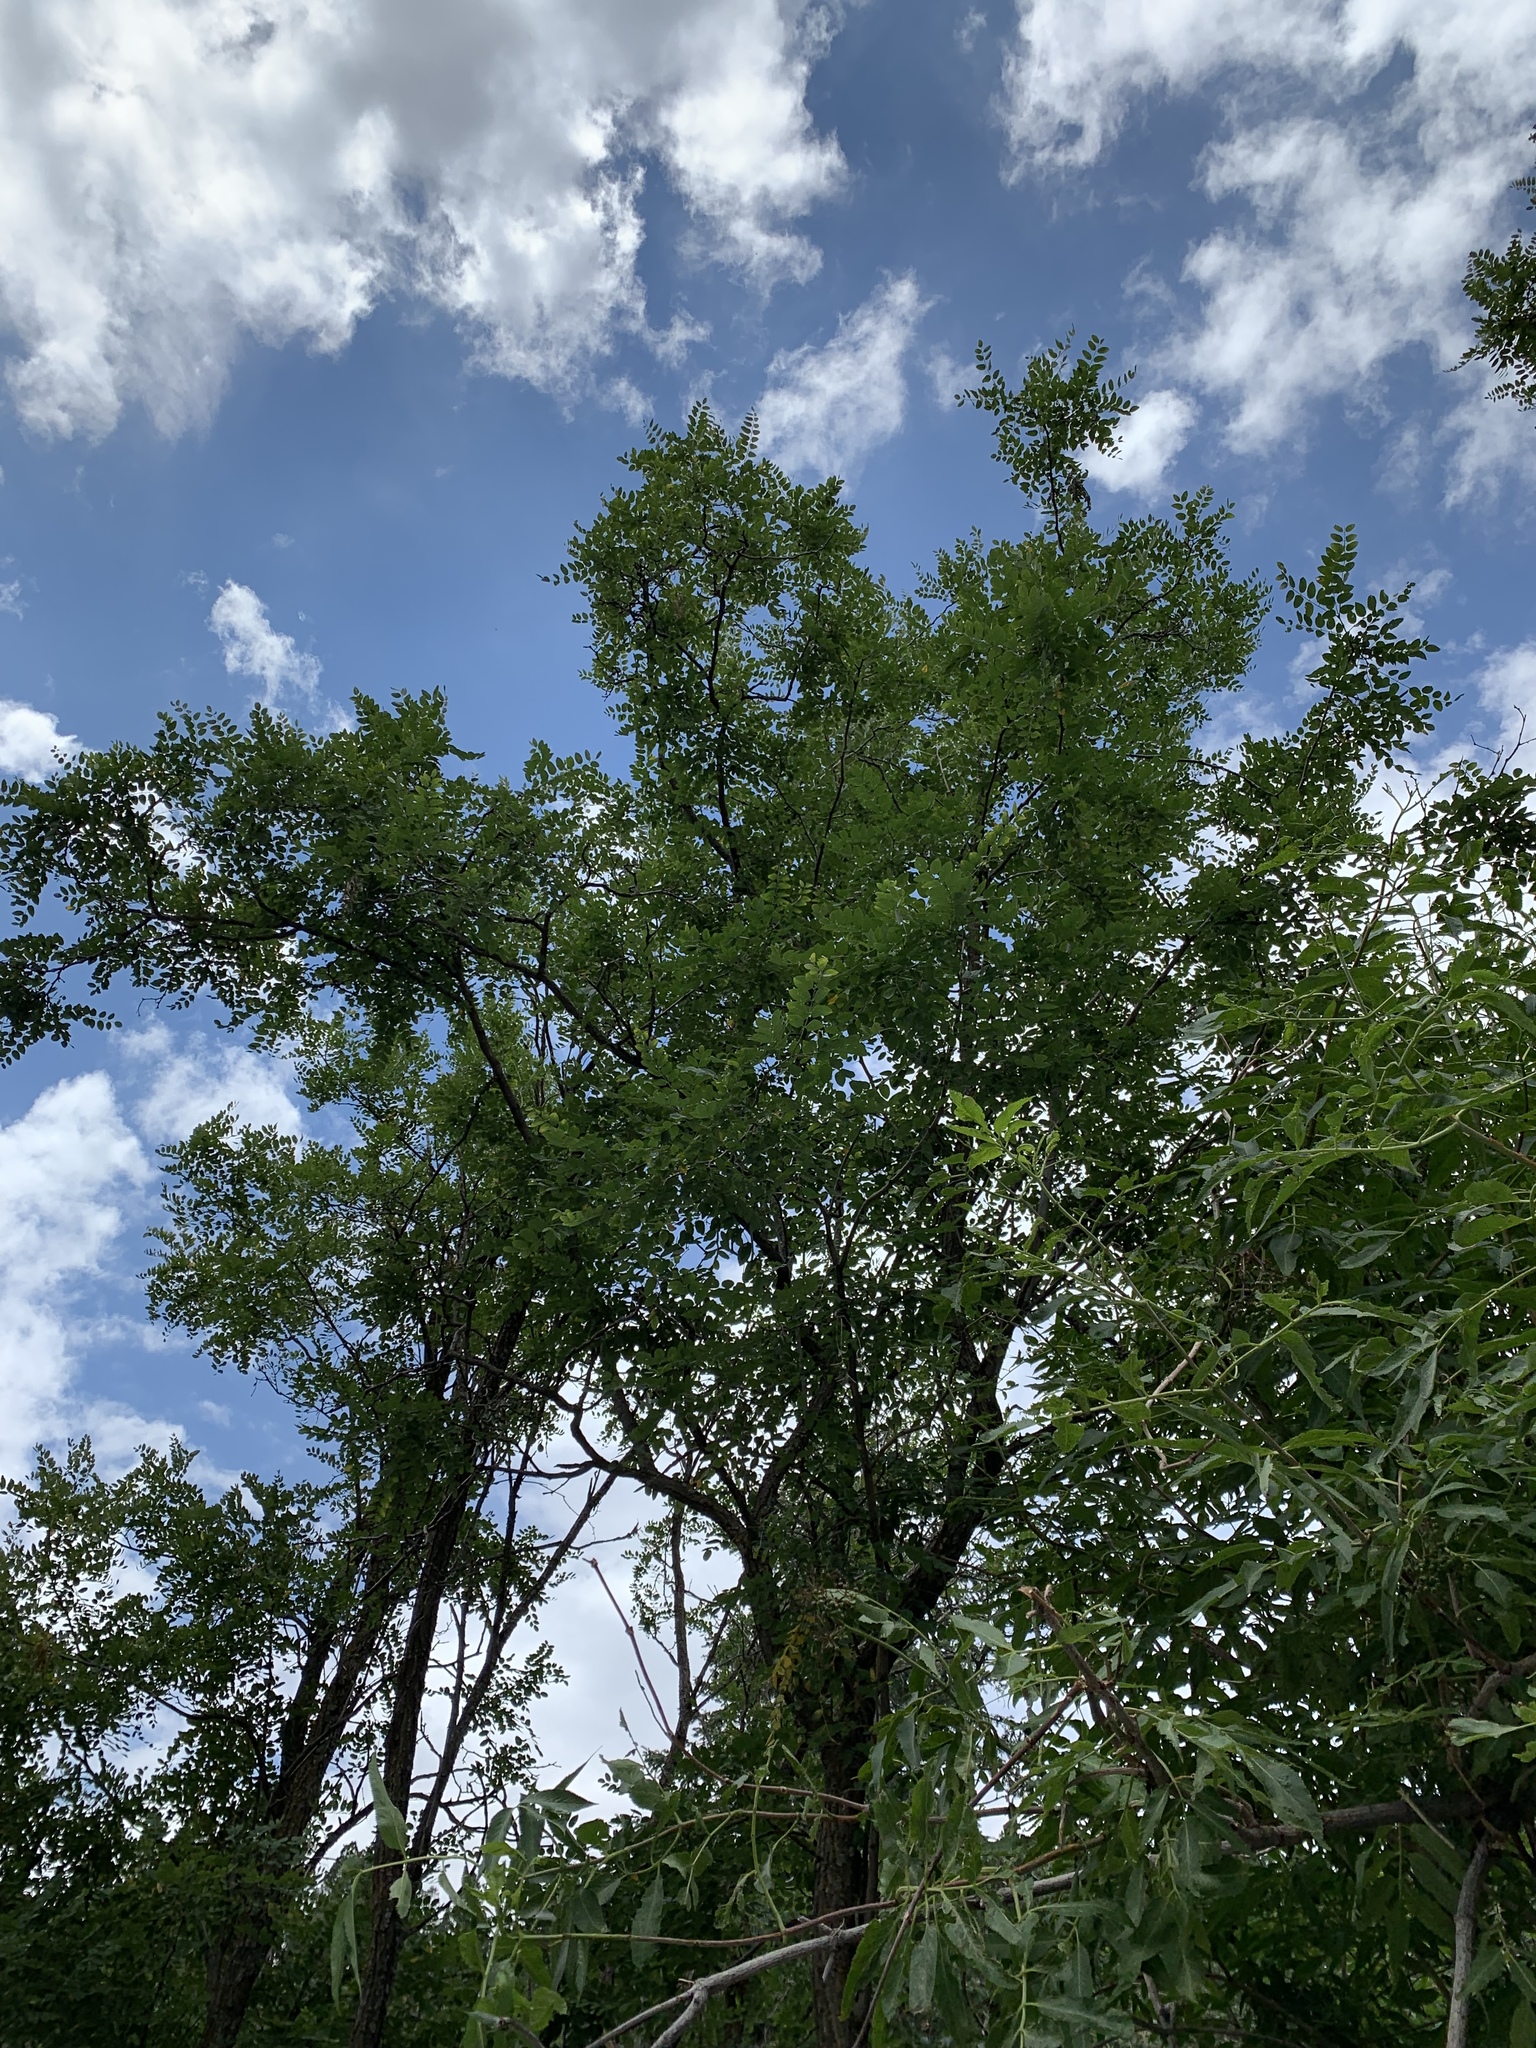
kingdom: Plantae
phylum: Tracheophyta
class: Magnoliopsida
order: Fabales
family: Fabaceae
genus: Robinia
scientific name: Robinia neomexicana
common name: New mexico locust
